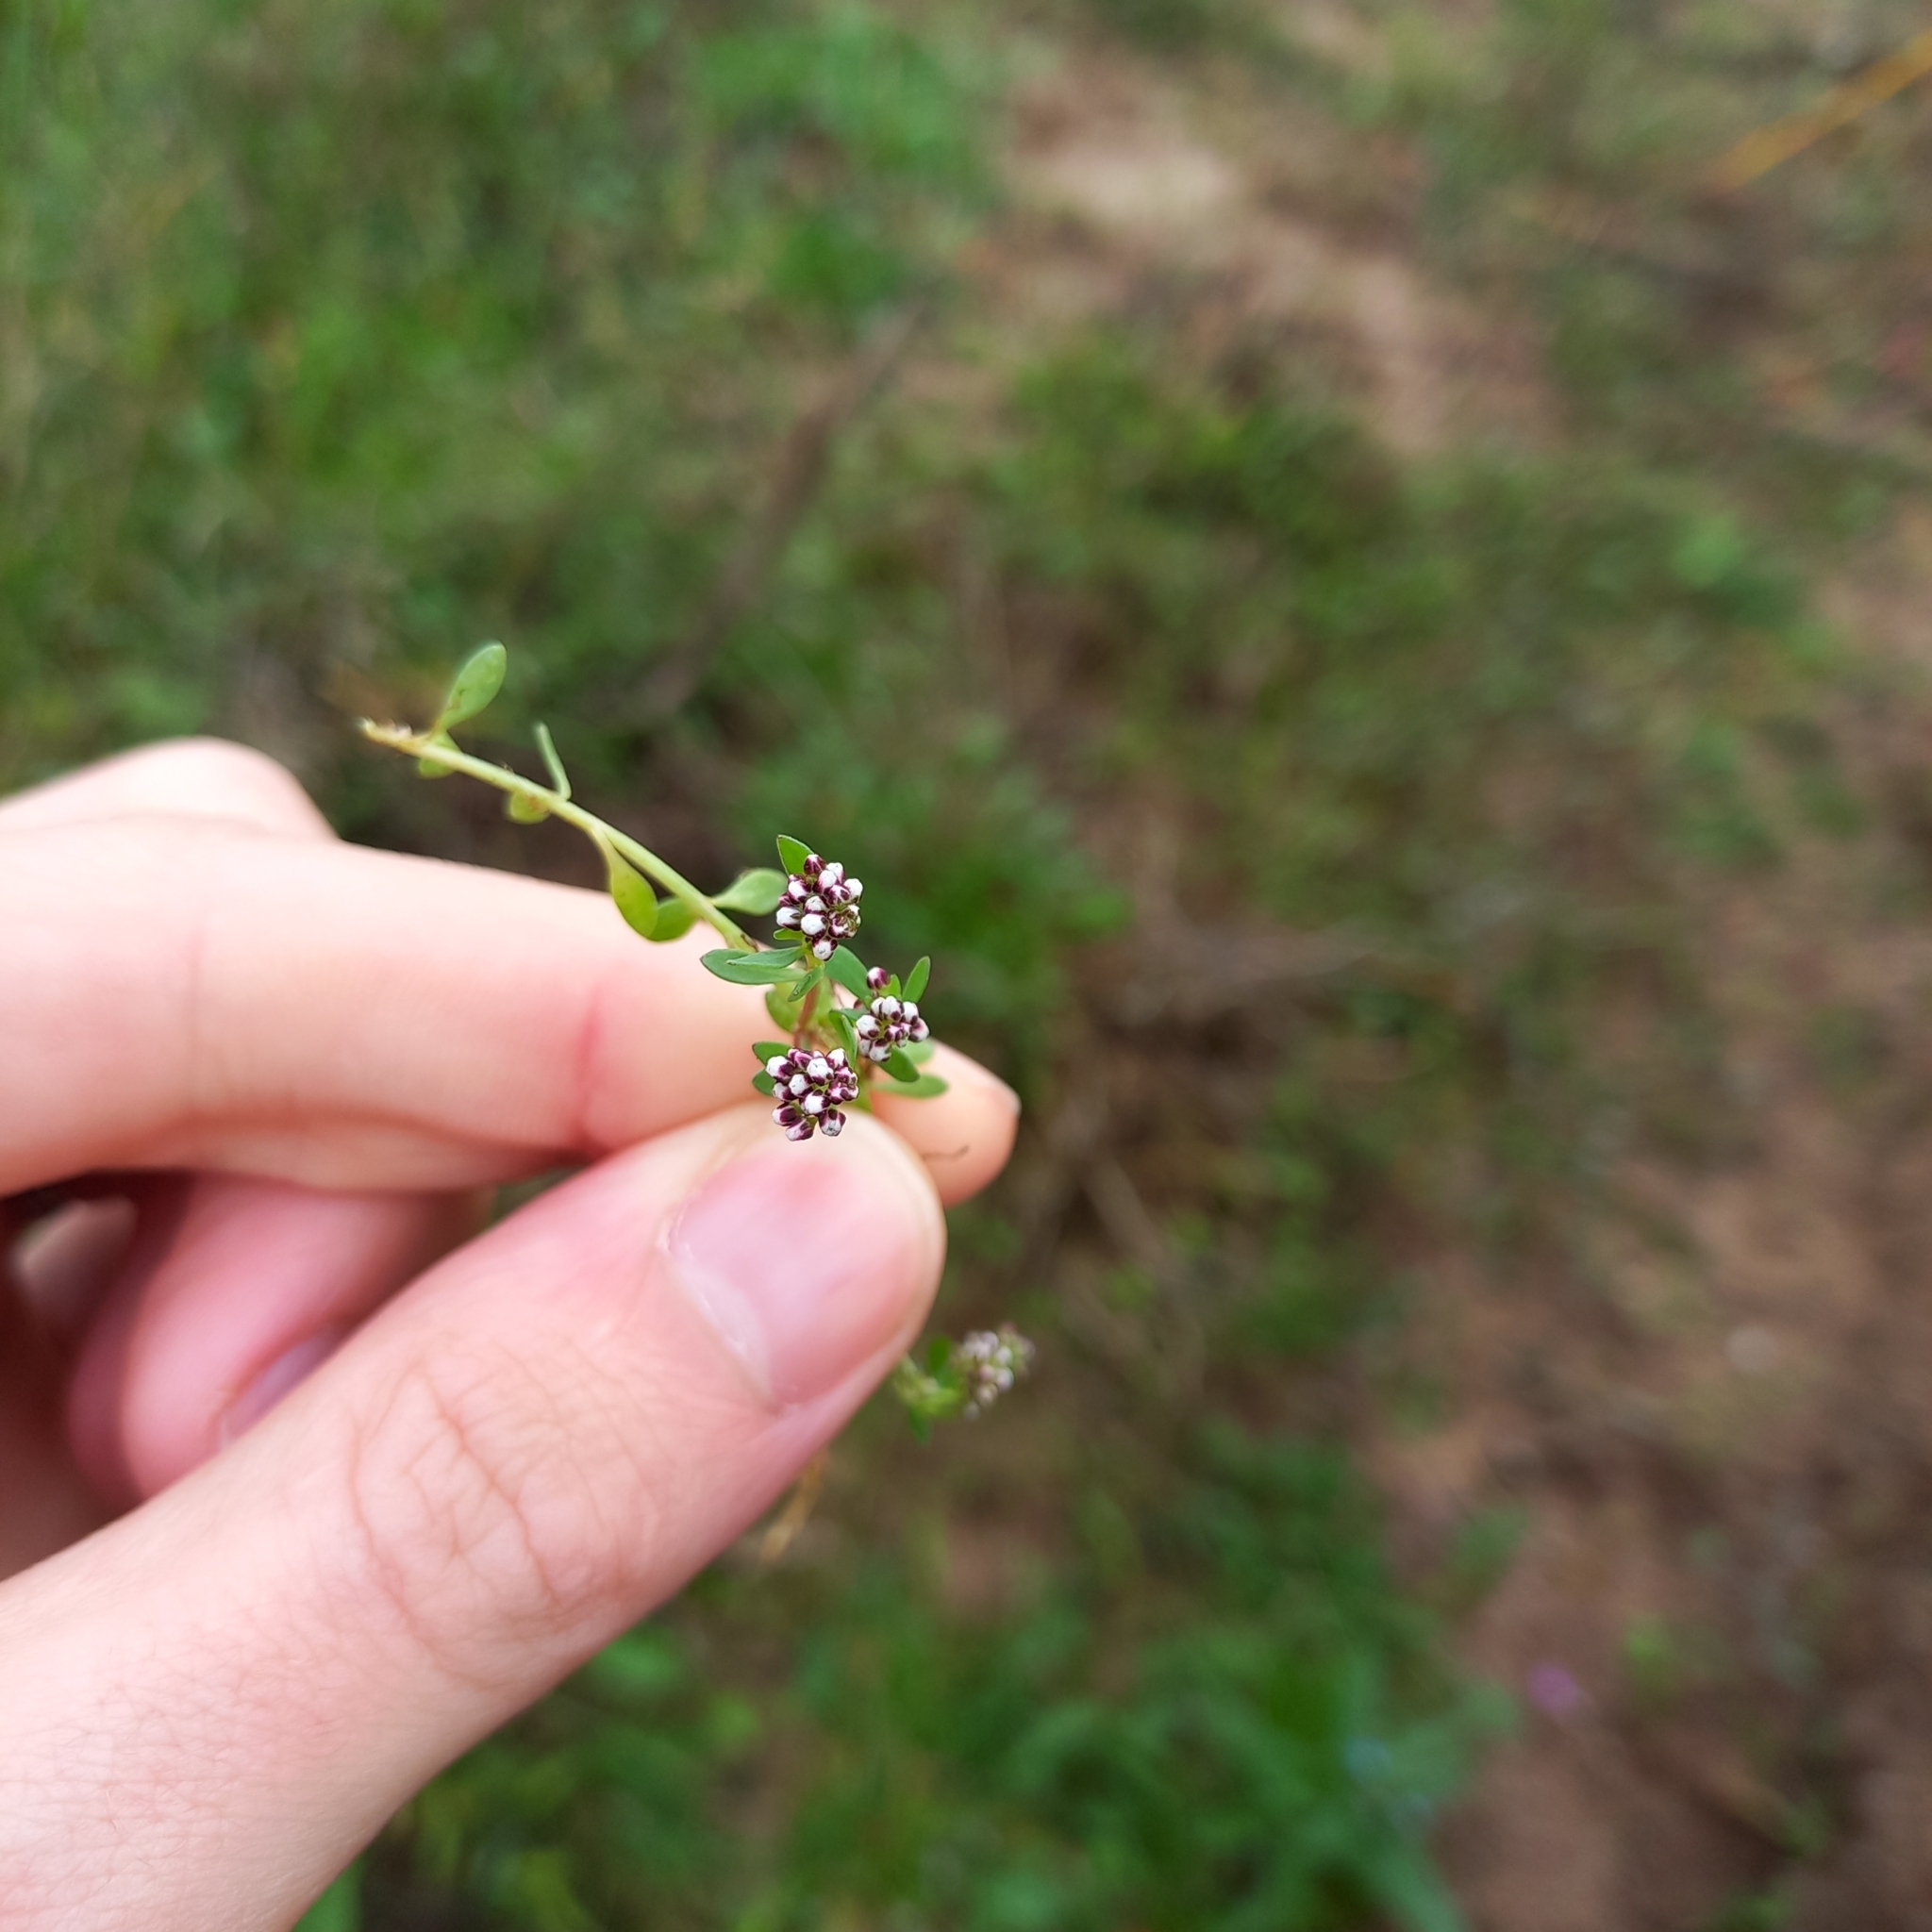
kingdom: Plantae
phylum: Tracheophyta
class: Magnoliopsida
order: Caryophyllales
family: Caryophyllaceae
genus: Corrigiola
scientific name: Corrigiola litoralis
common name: Strapwort
